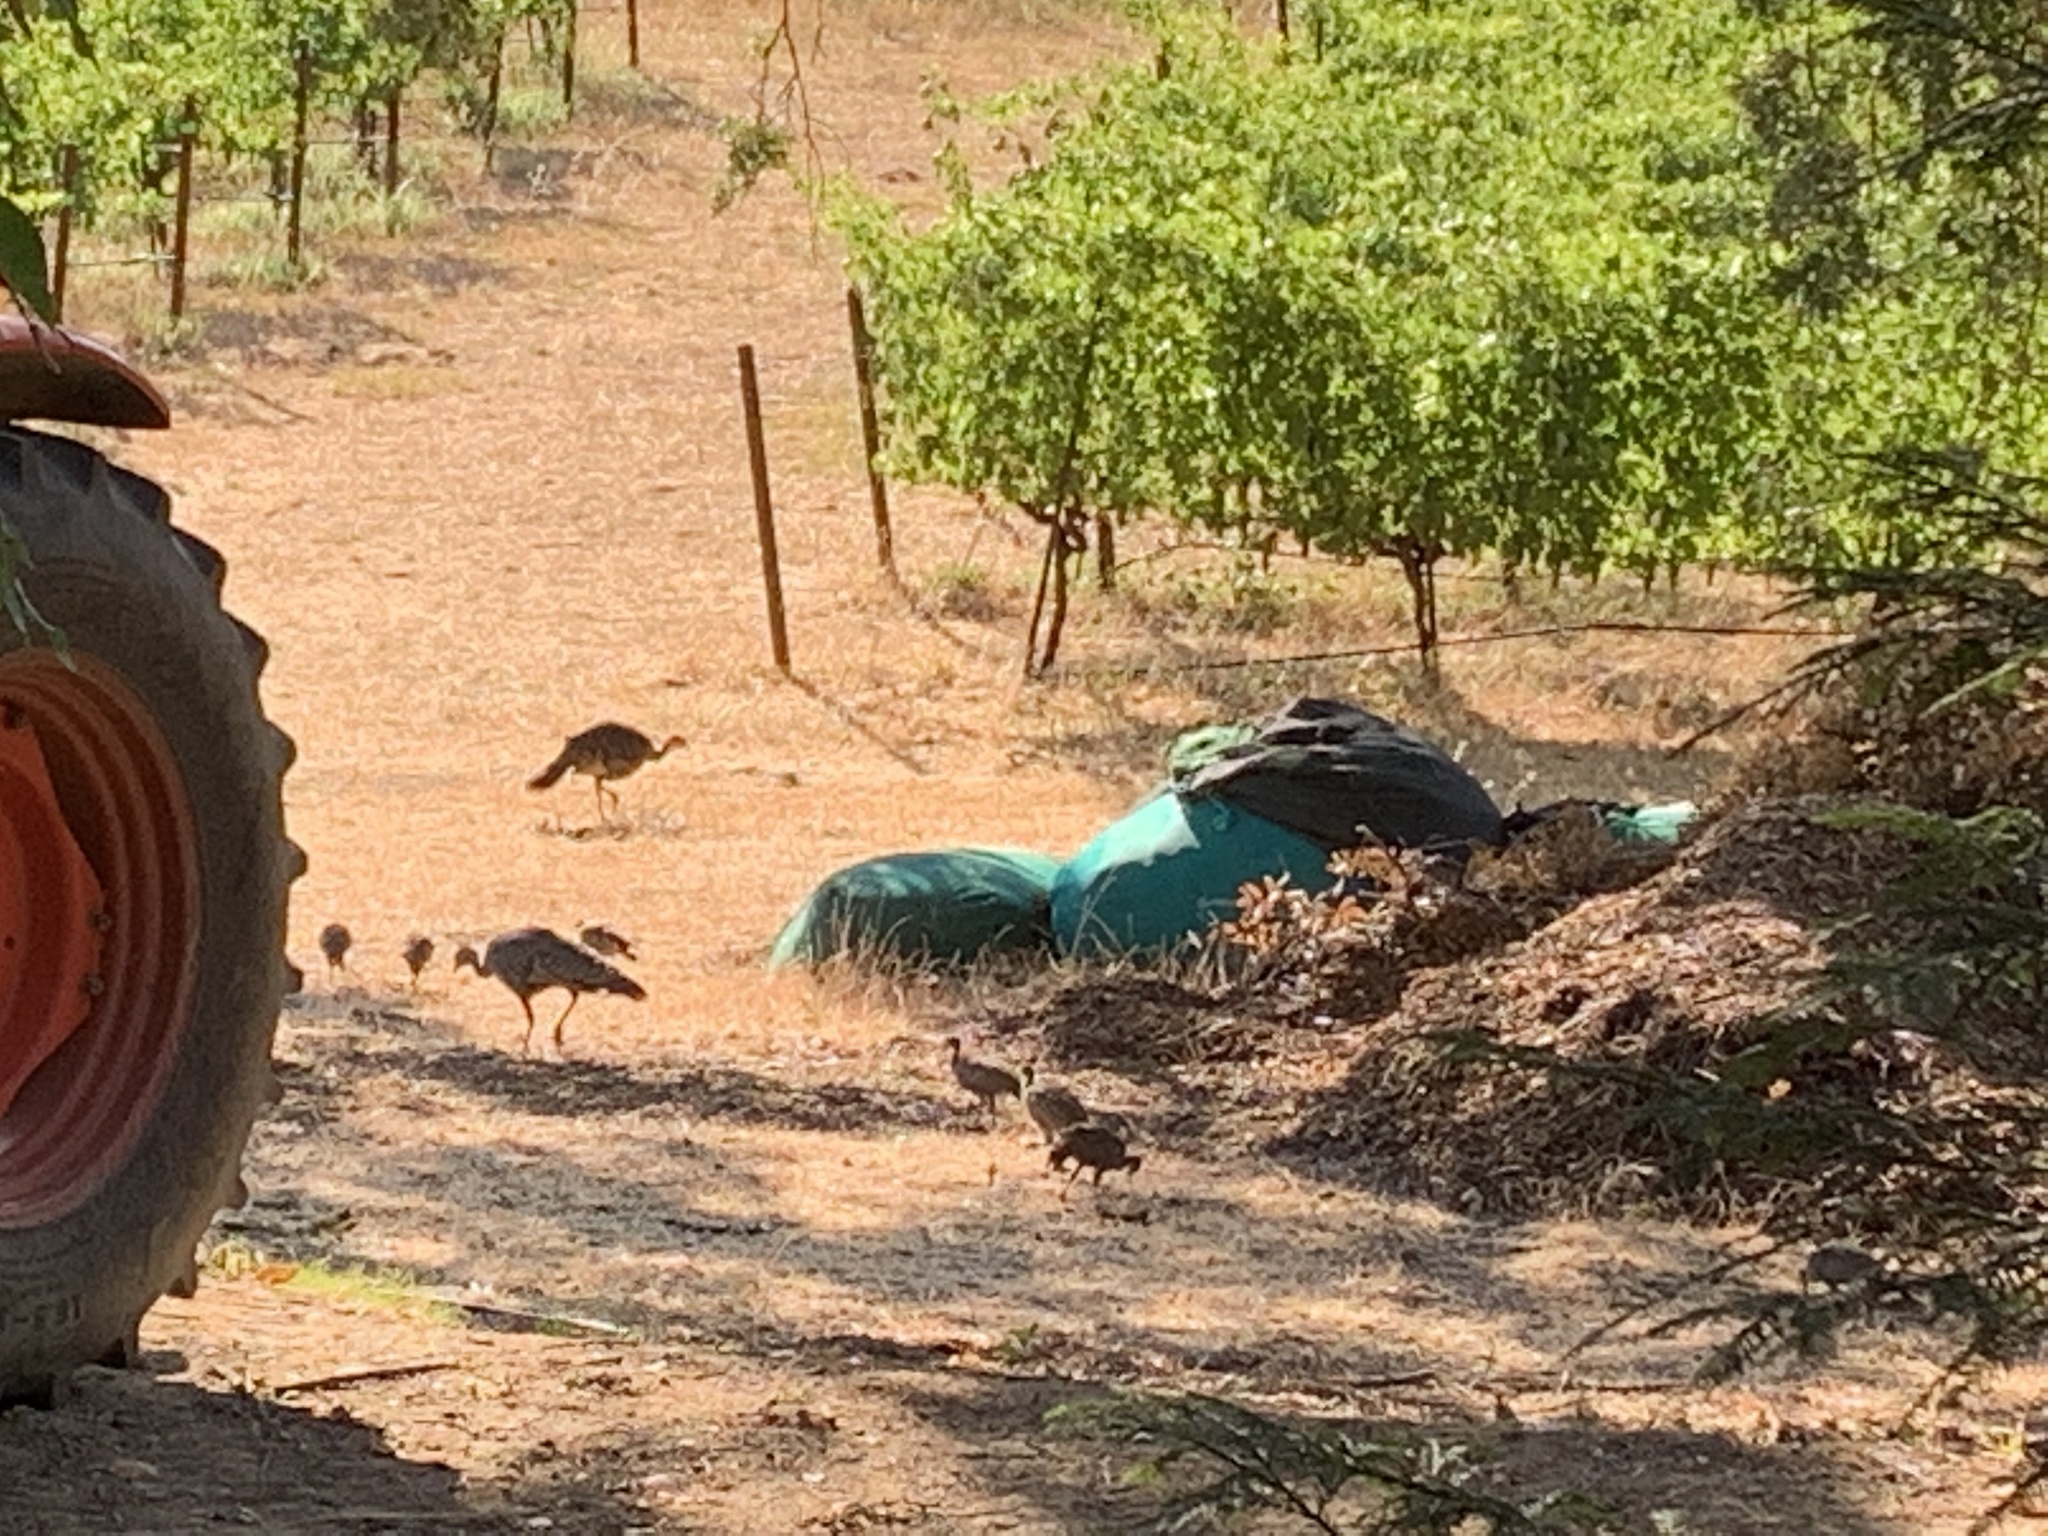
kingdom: Animalia
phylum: Chordata
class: Aves
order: Galliformes
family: Phasianidae
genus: Meleagris
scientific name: Meleagris gallopavo
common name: Wild turkey
